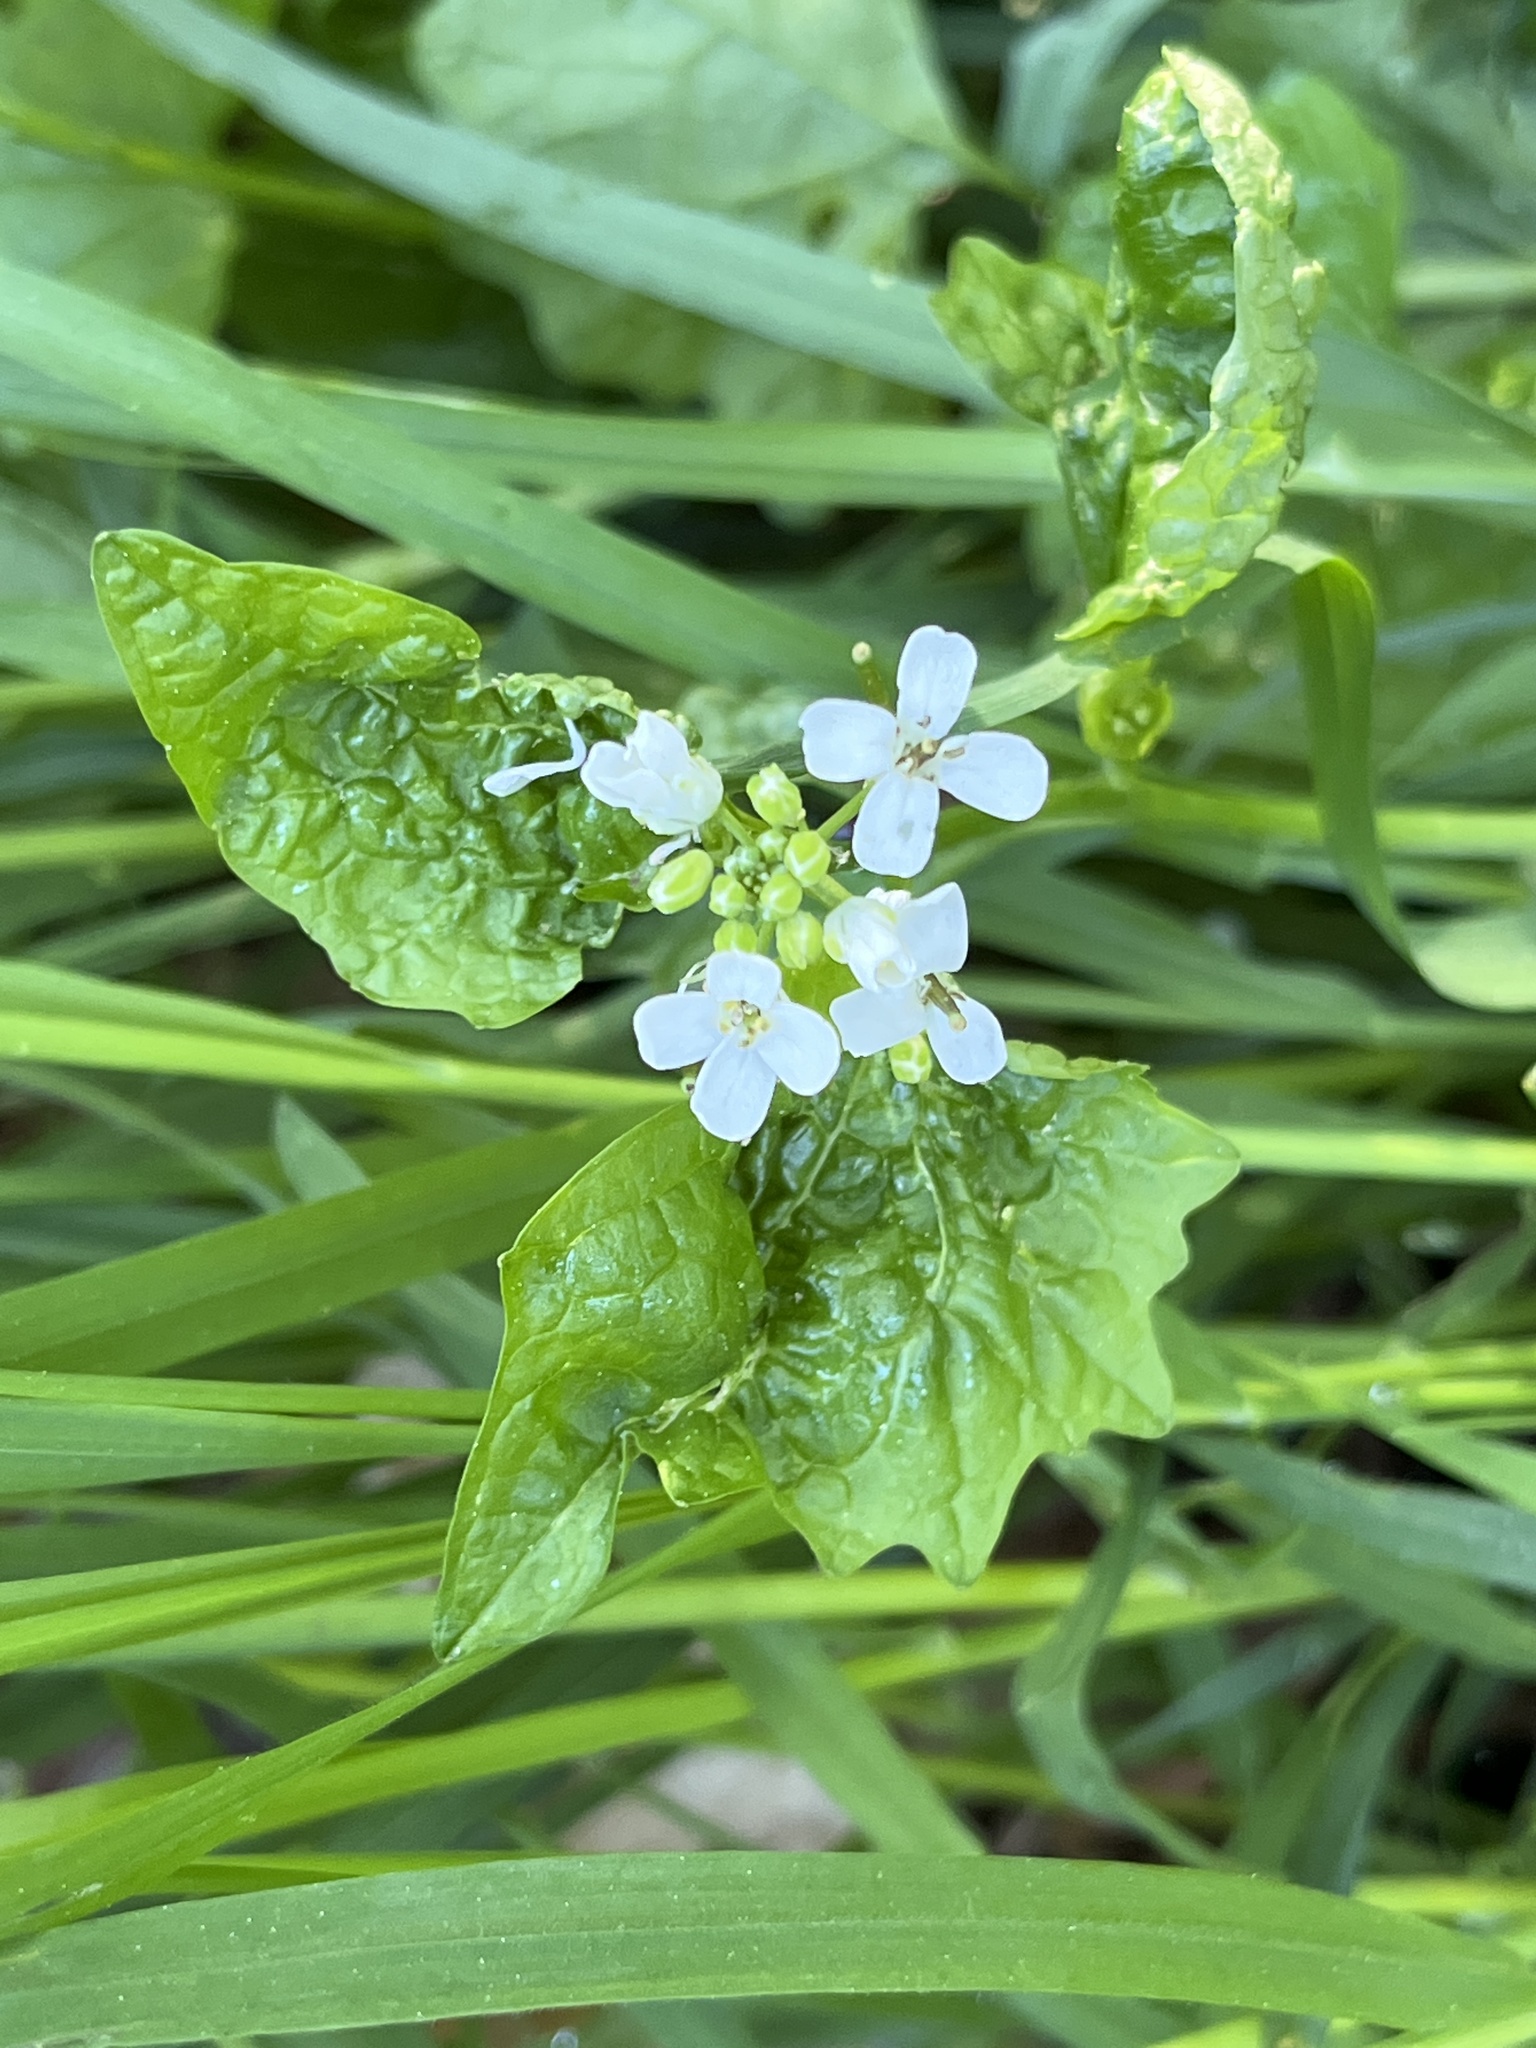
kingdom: Plantae
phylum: Tracheophyta
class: Magnoliopsida
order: Brassicales
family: Brassicaceae
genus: Alliaria
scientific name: Alliaria petiolata
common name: Garlic mustard
